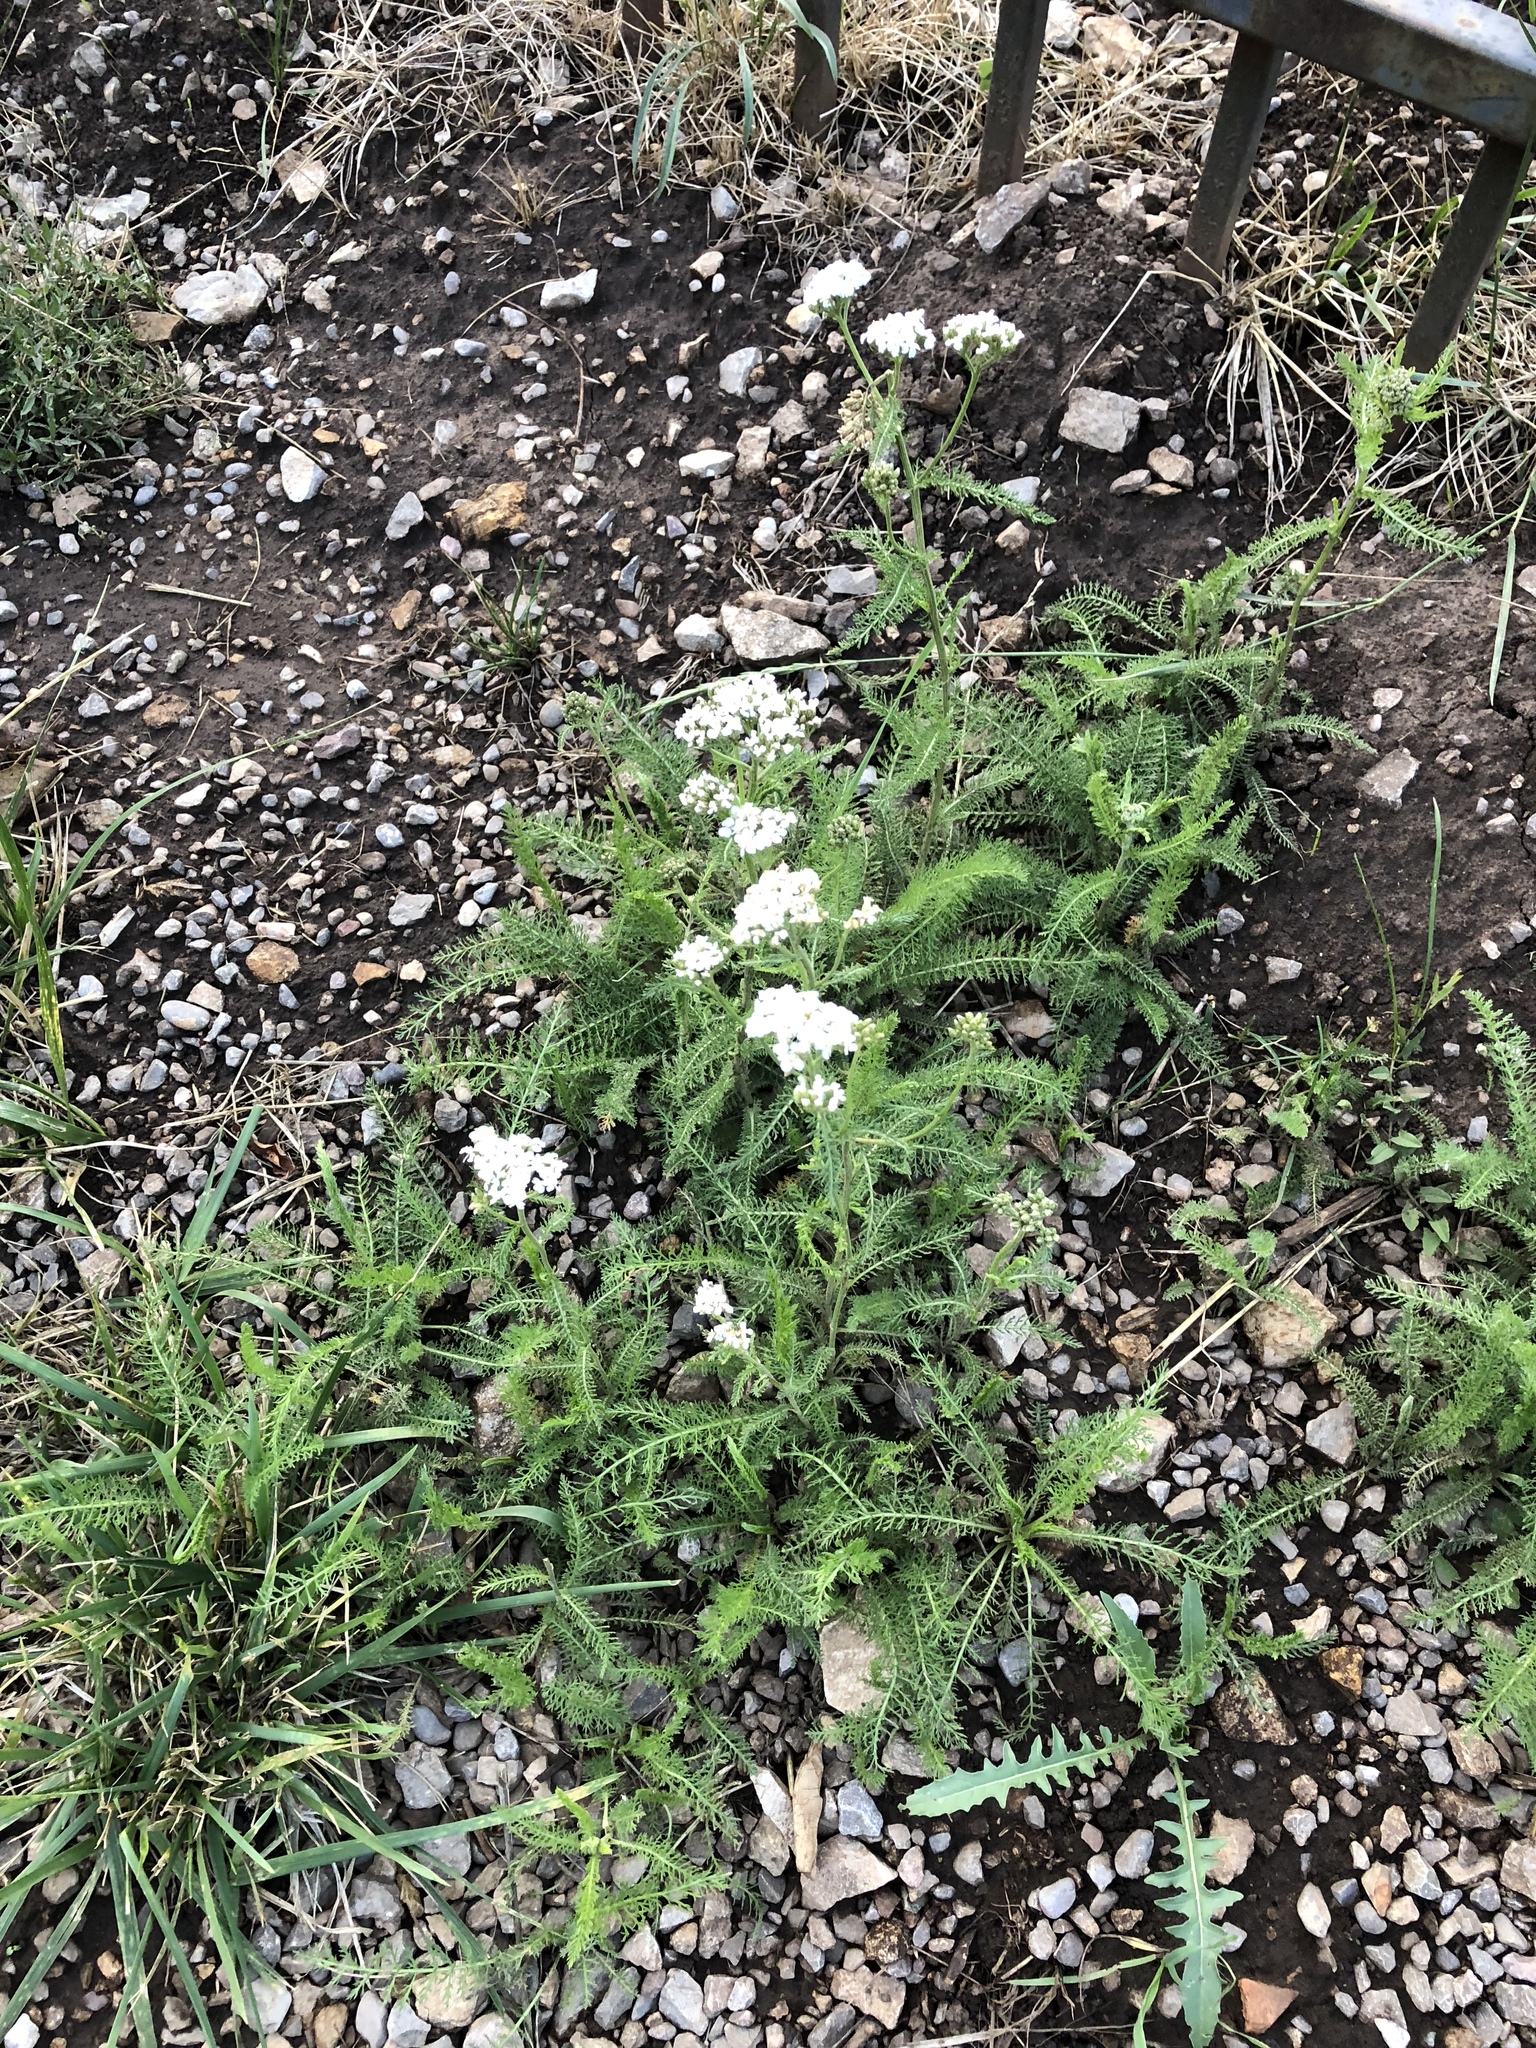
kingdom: Plantae
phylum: Tracheophyta
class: Magnoliopsida
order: Asterales
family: Asteraceae
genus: Achillea
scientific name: Achillea millefolium
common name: Yarrow
